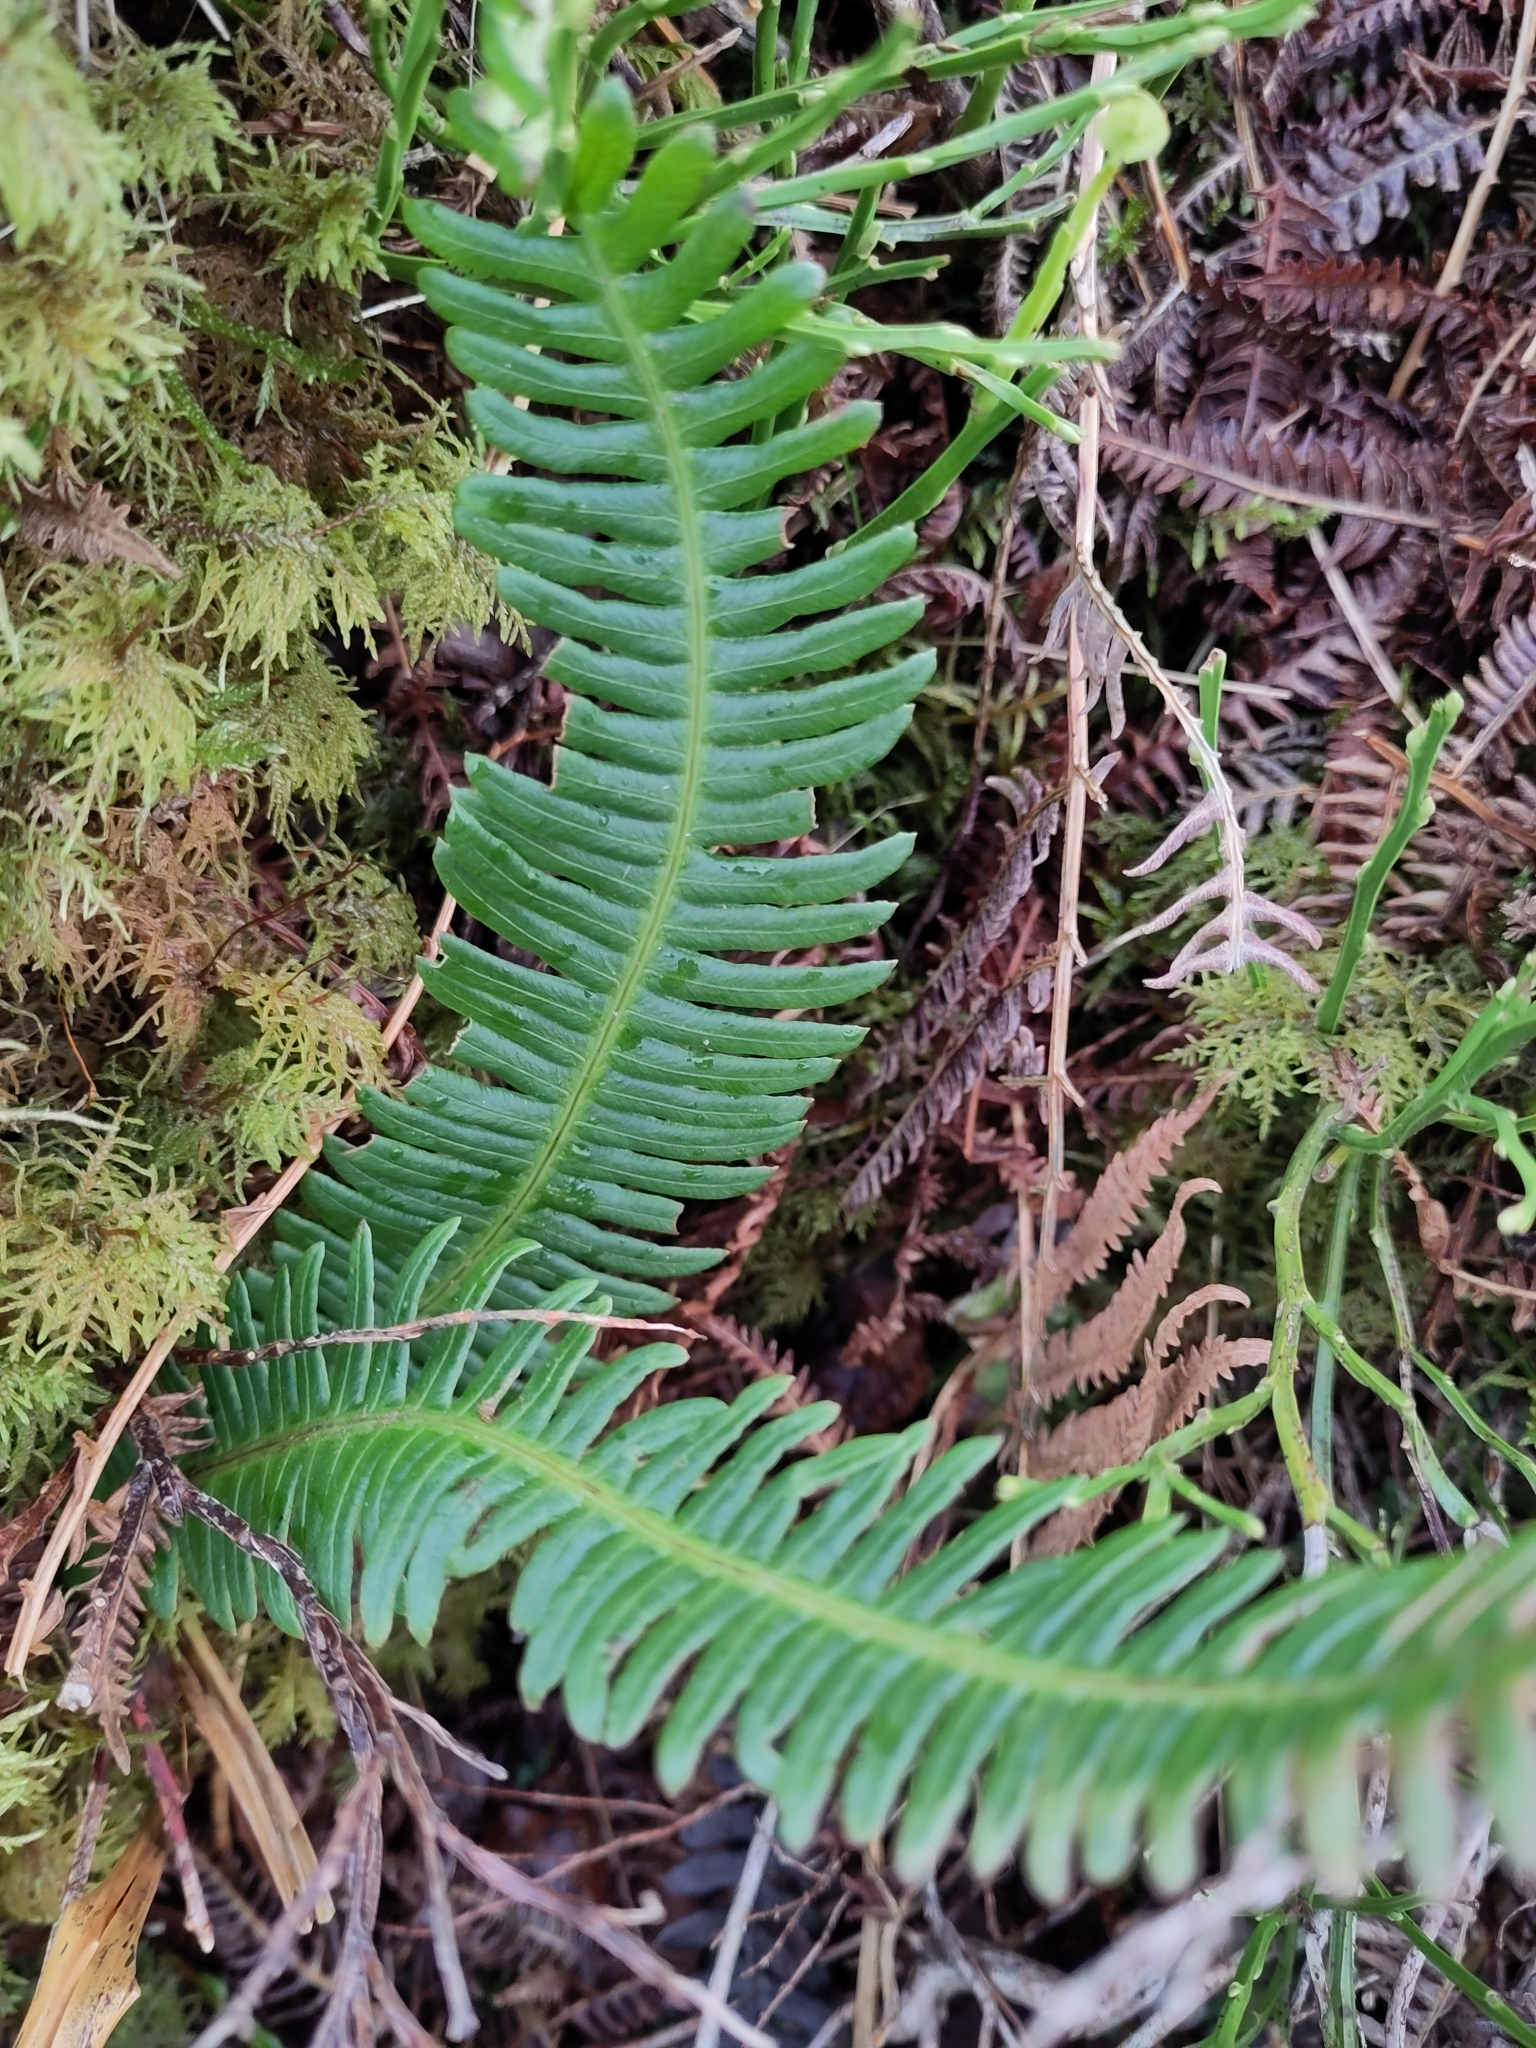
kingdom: Plantae
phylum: Tracheophyta
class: Polypodiopsida
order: Polypodiales
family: Blechnaceae
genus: Struthiopteris
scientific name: Struthiopteris spicant
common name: Deer fern
